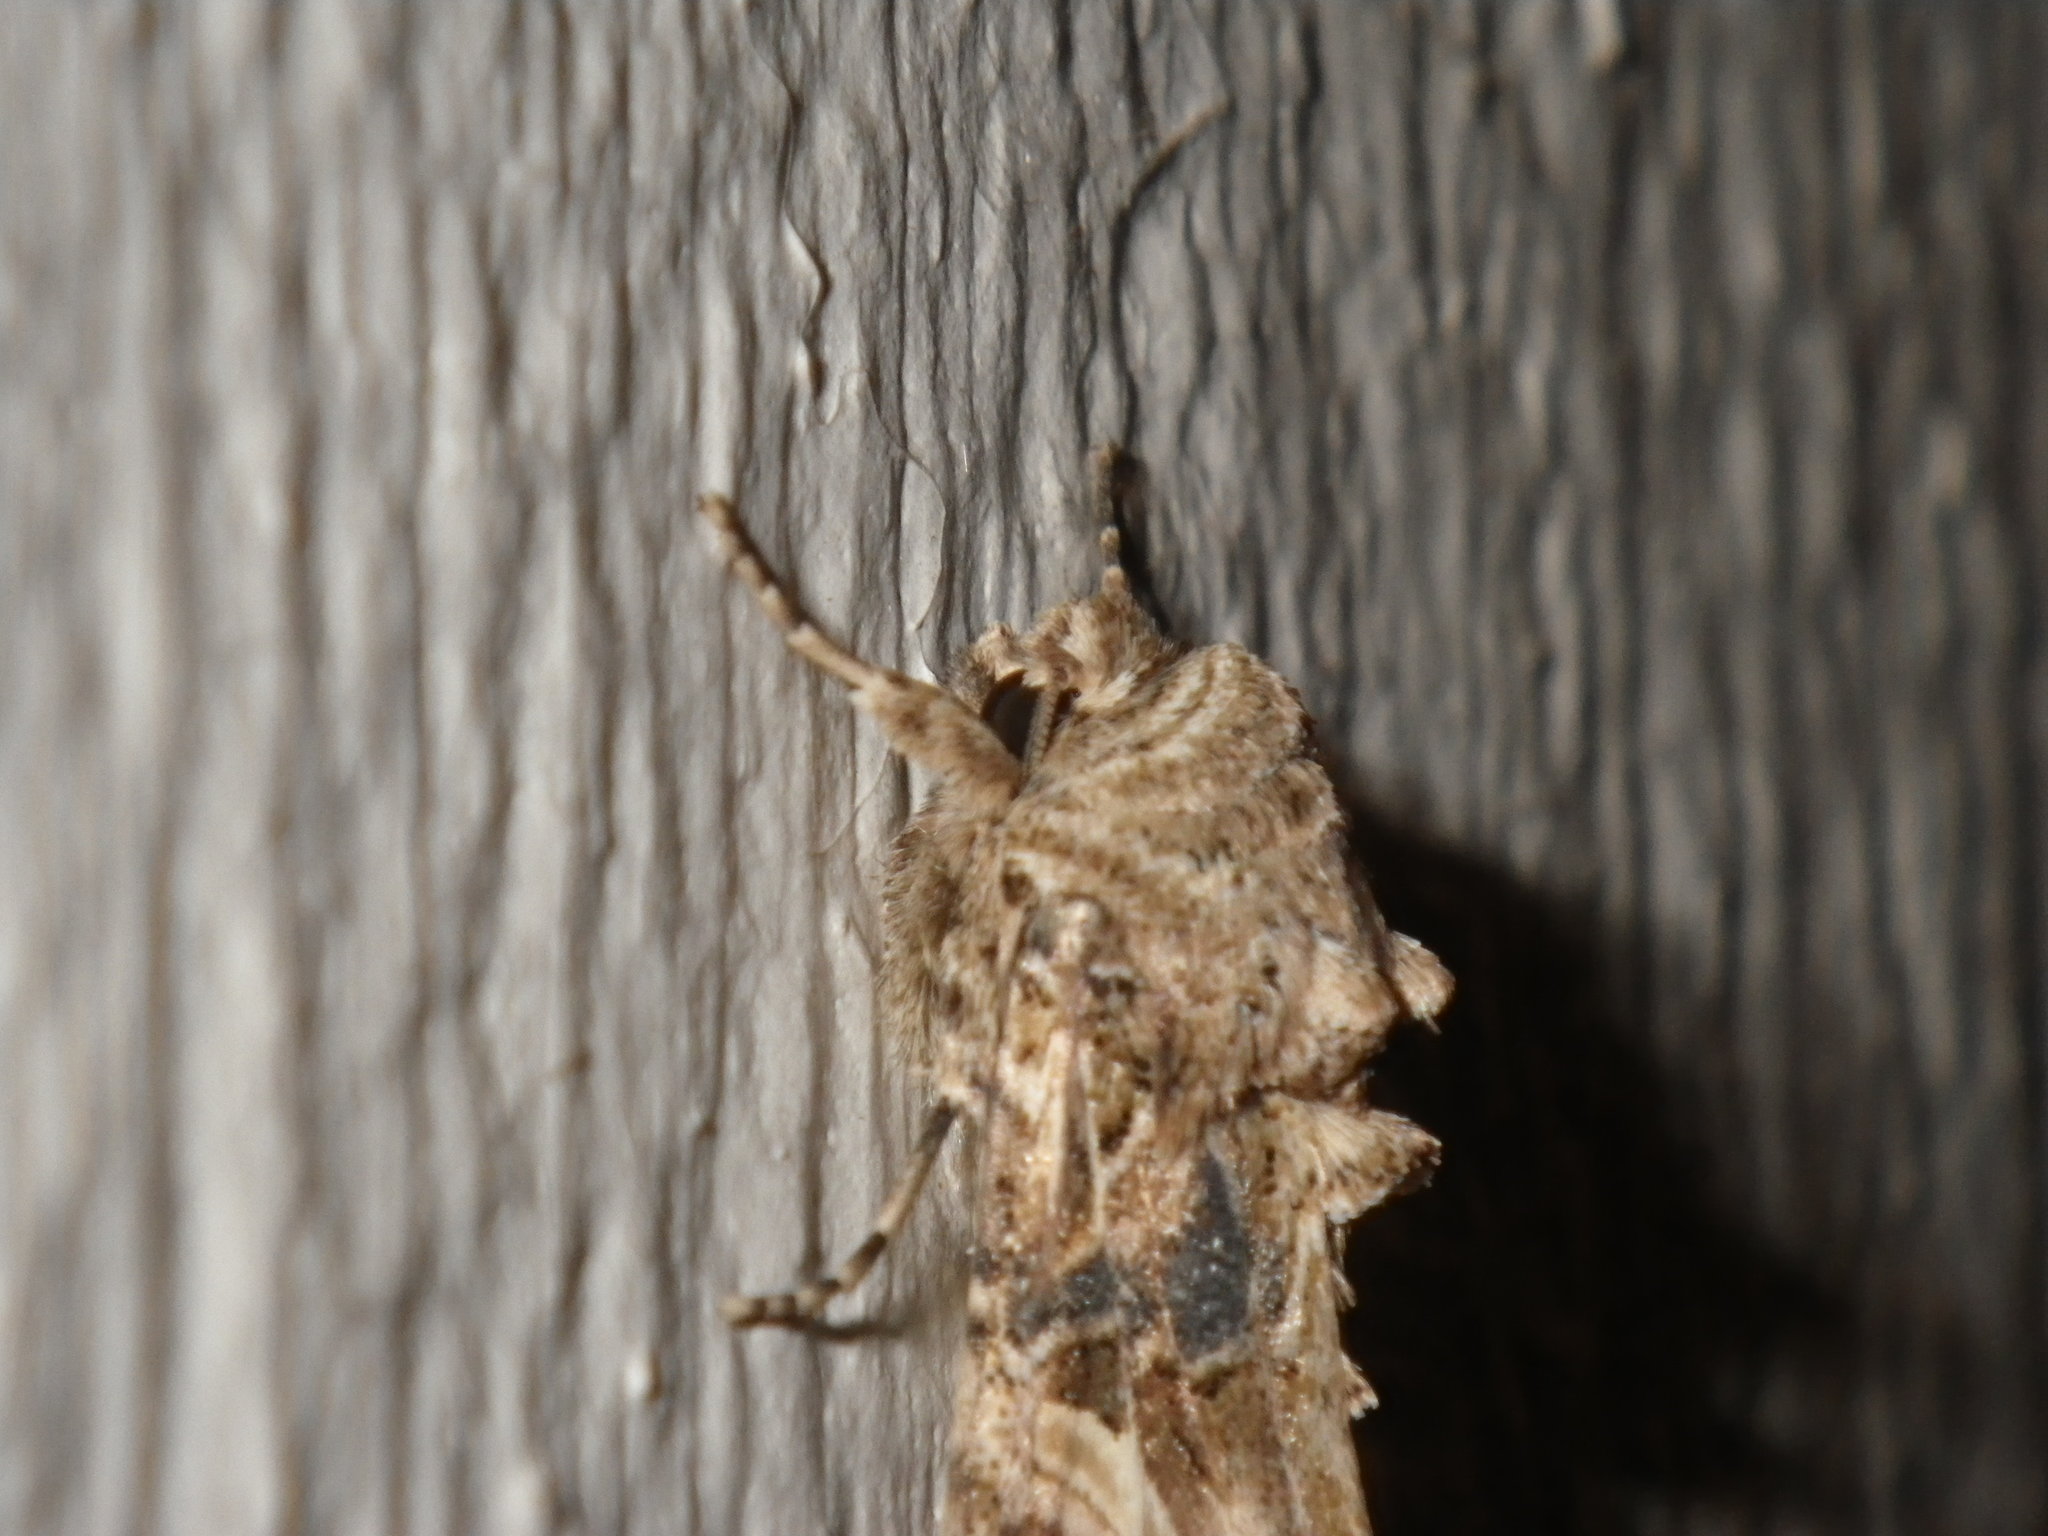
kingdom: Animalia
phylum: Arthropoda
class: Insecta
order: Lepidoptera
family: Noctuidae
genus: Spodoptera
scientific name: Spodoptera praefica
